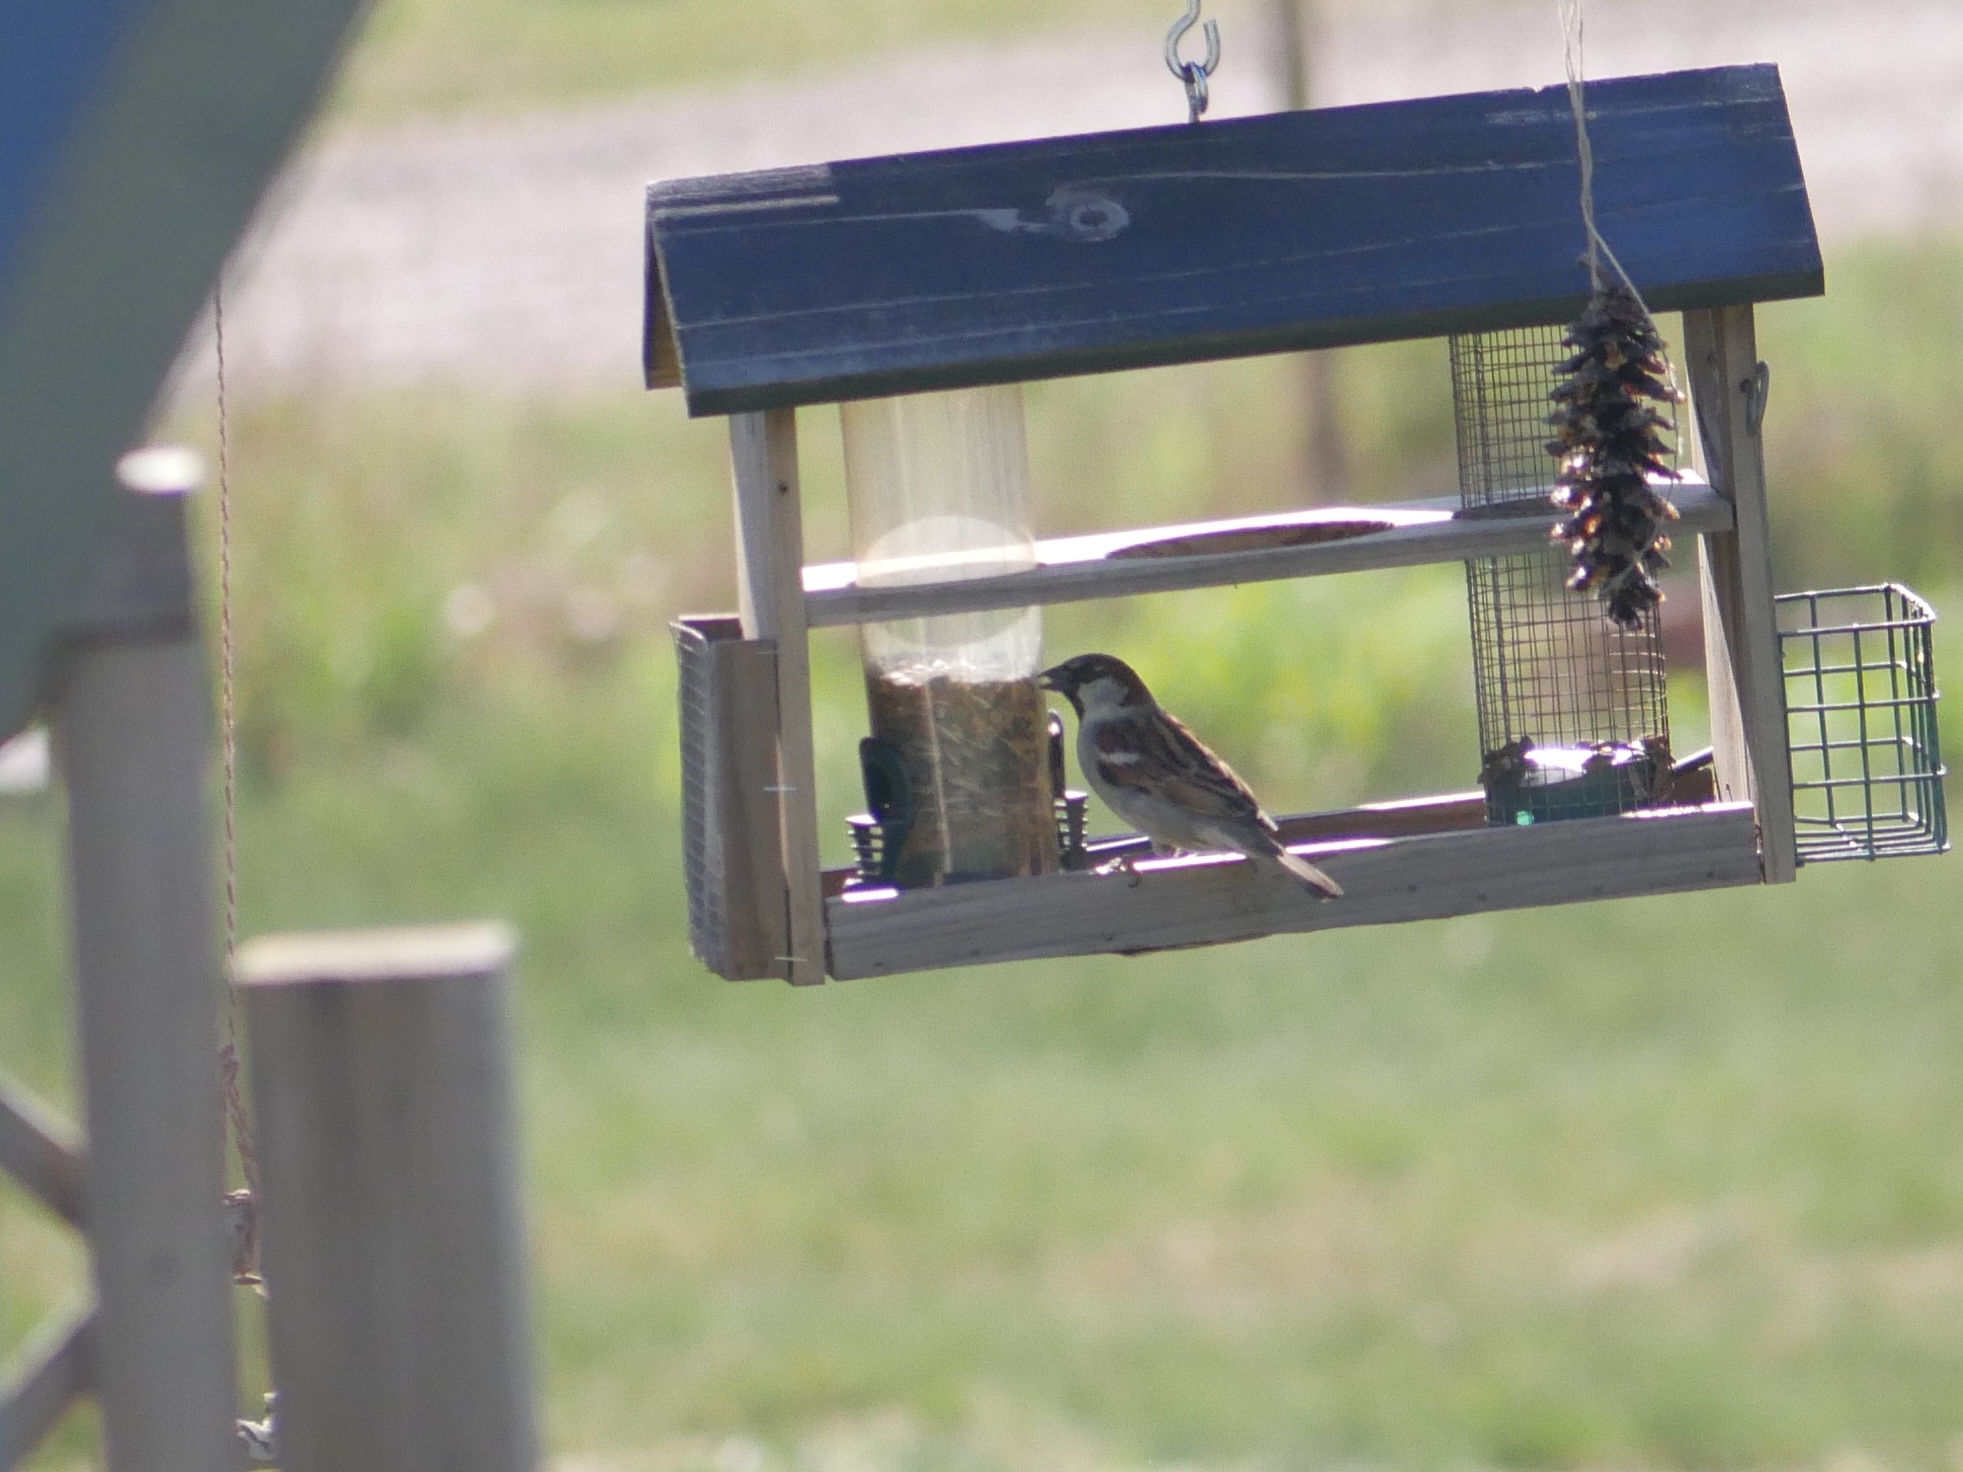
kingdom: Animalia
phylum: Chordata
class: Aves
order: Passeriformes
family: Passeridae
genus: Passer
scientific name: Passer domesticus
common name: House sparrow
